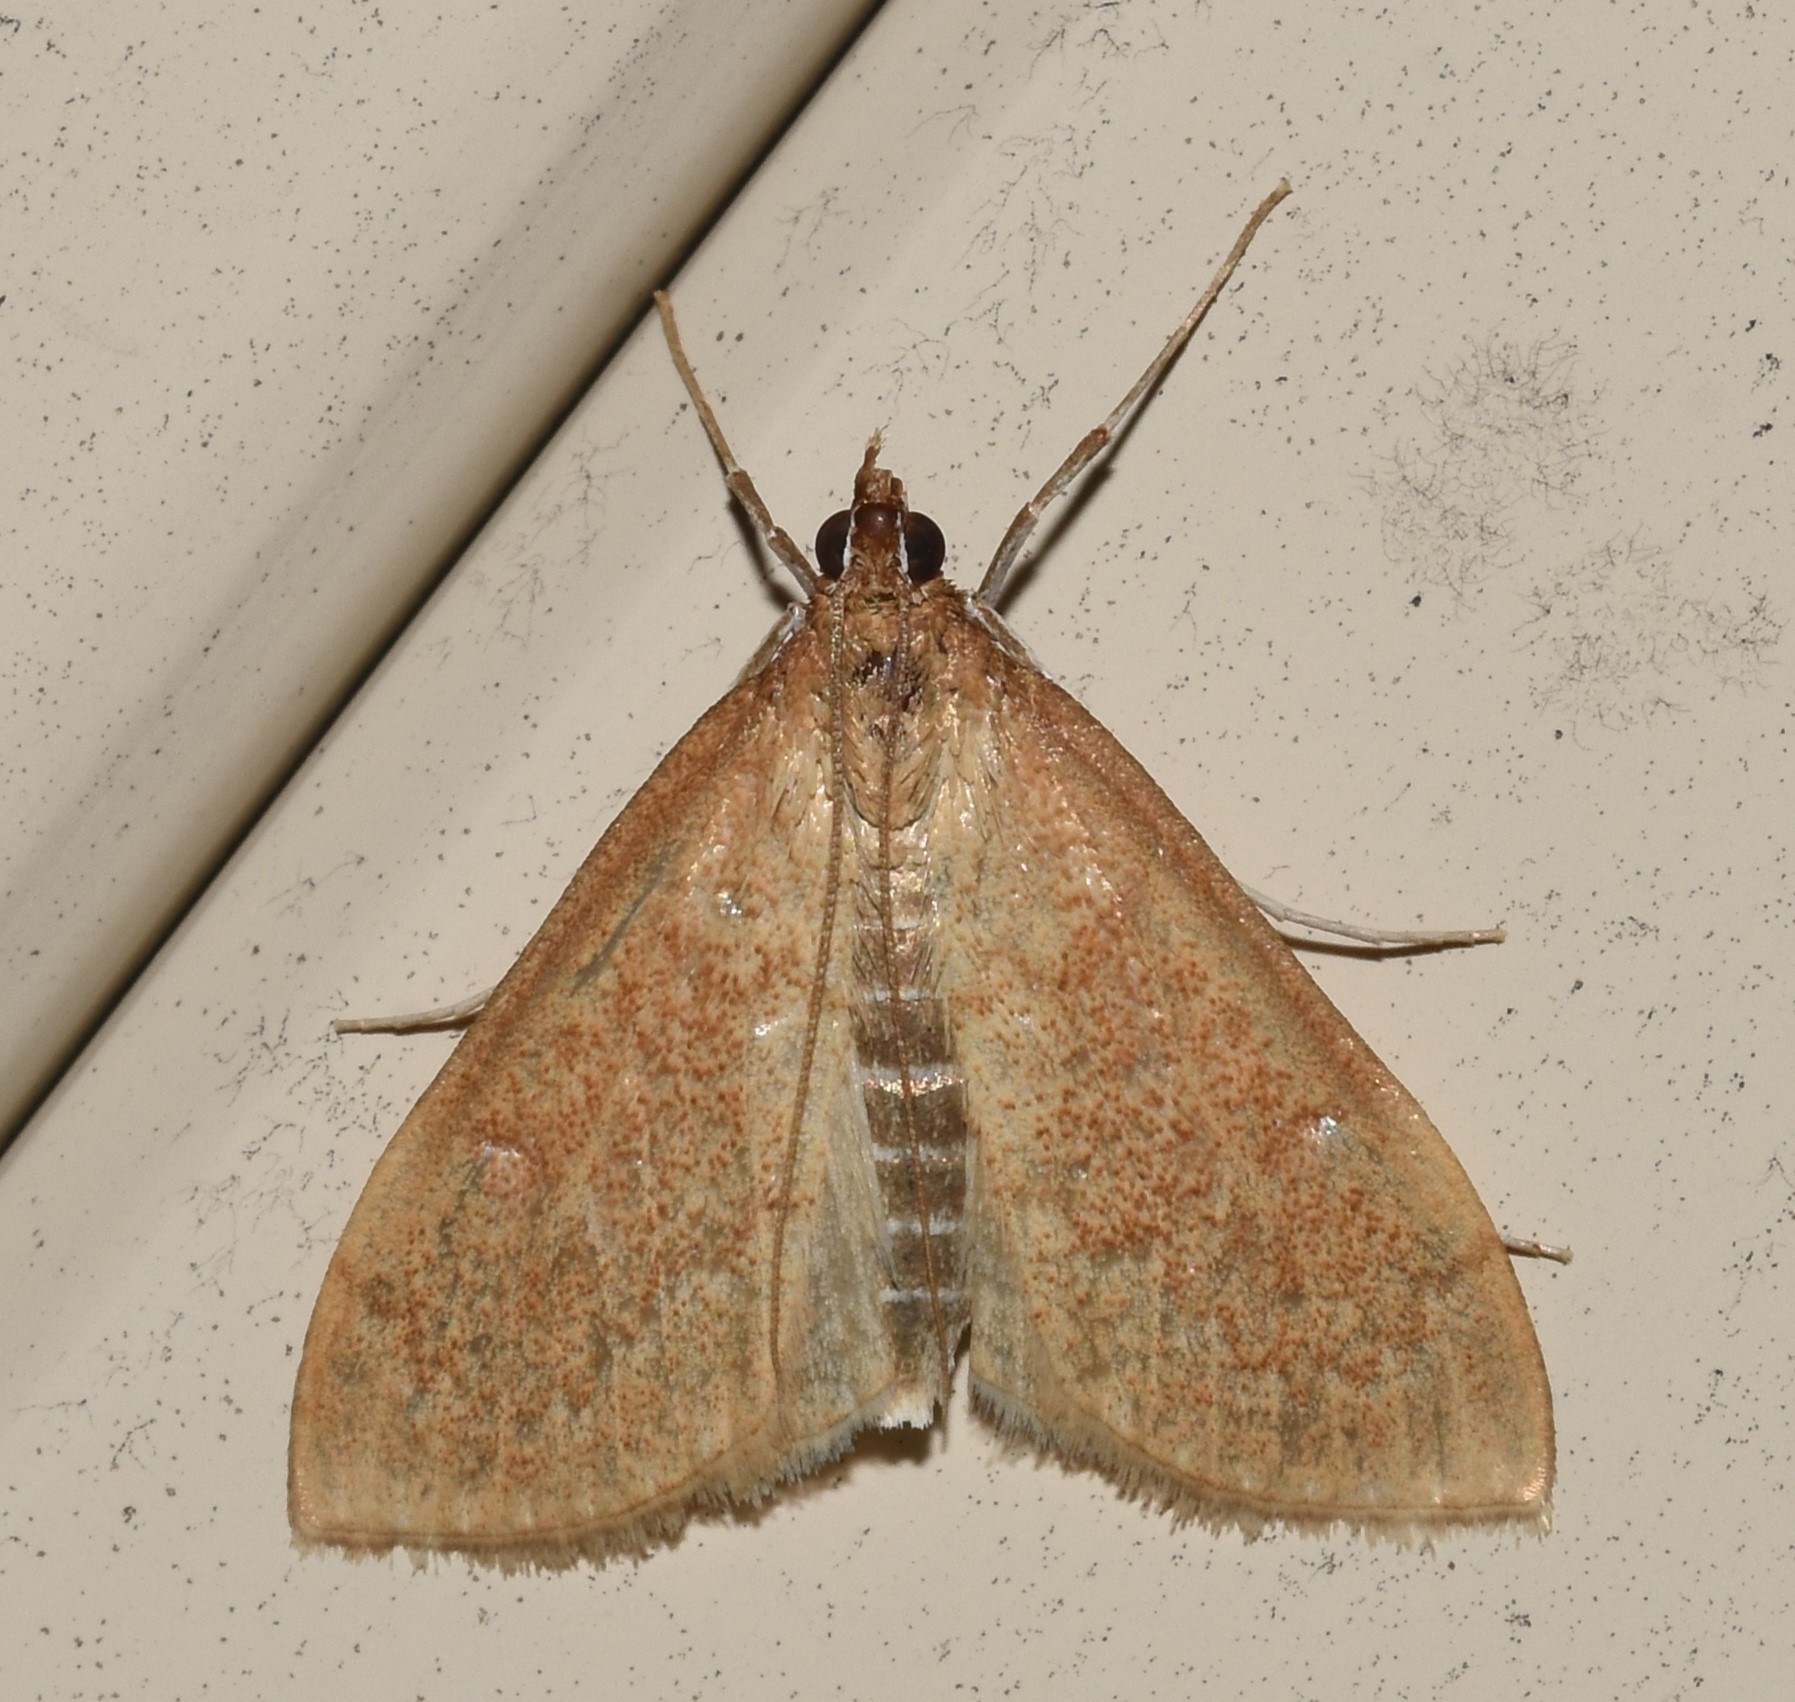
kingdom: Animalia
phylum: Arthropoda
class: Insecta
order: Lepidoptera
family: Crambidae
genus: Saucrobotys
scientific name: Saucrobotys futilalis
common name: Dogbane saucrobotys moth
